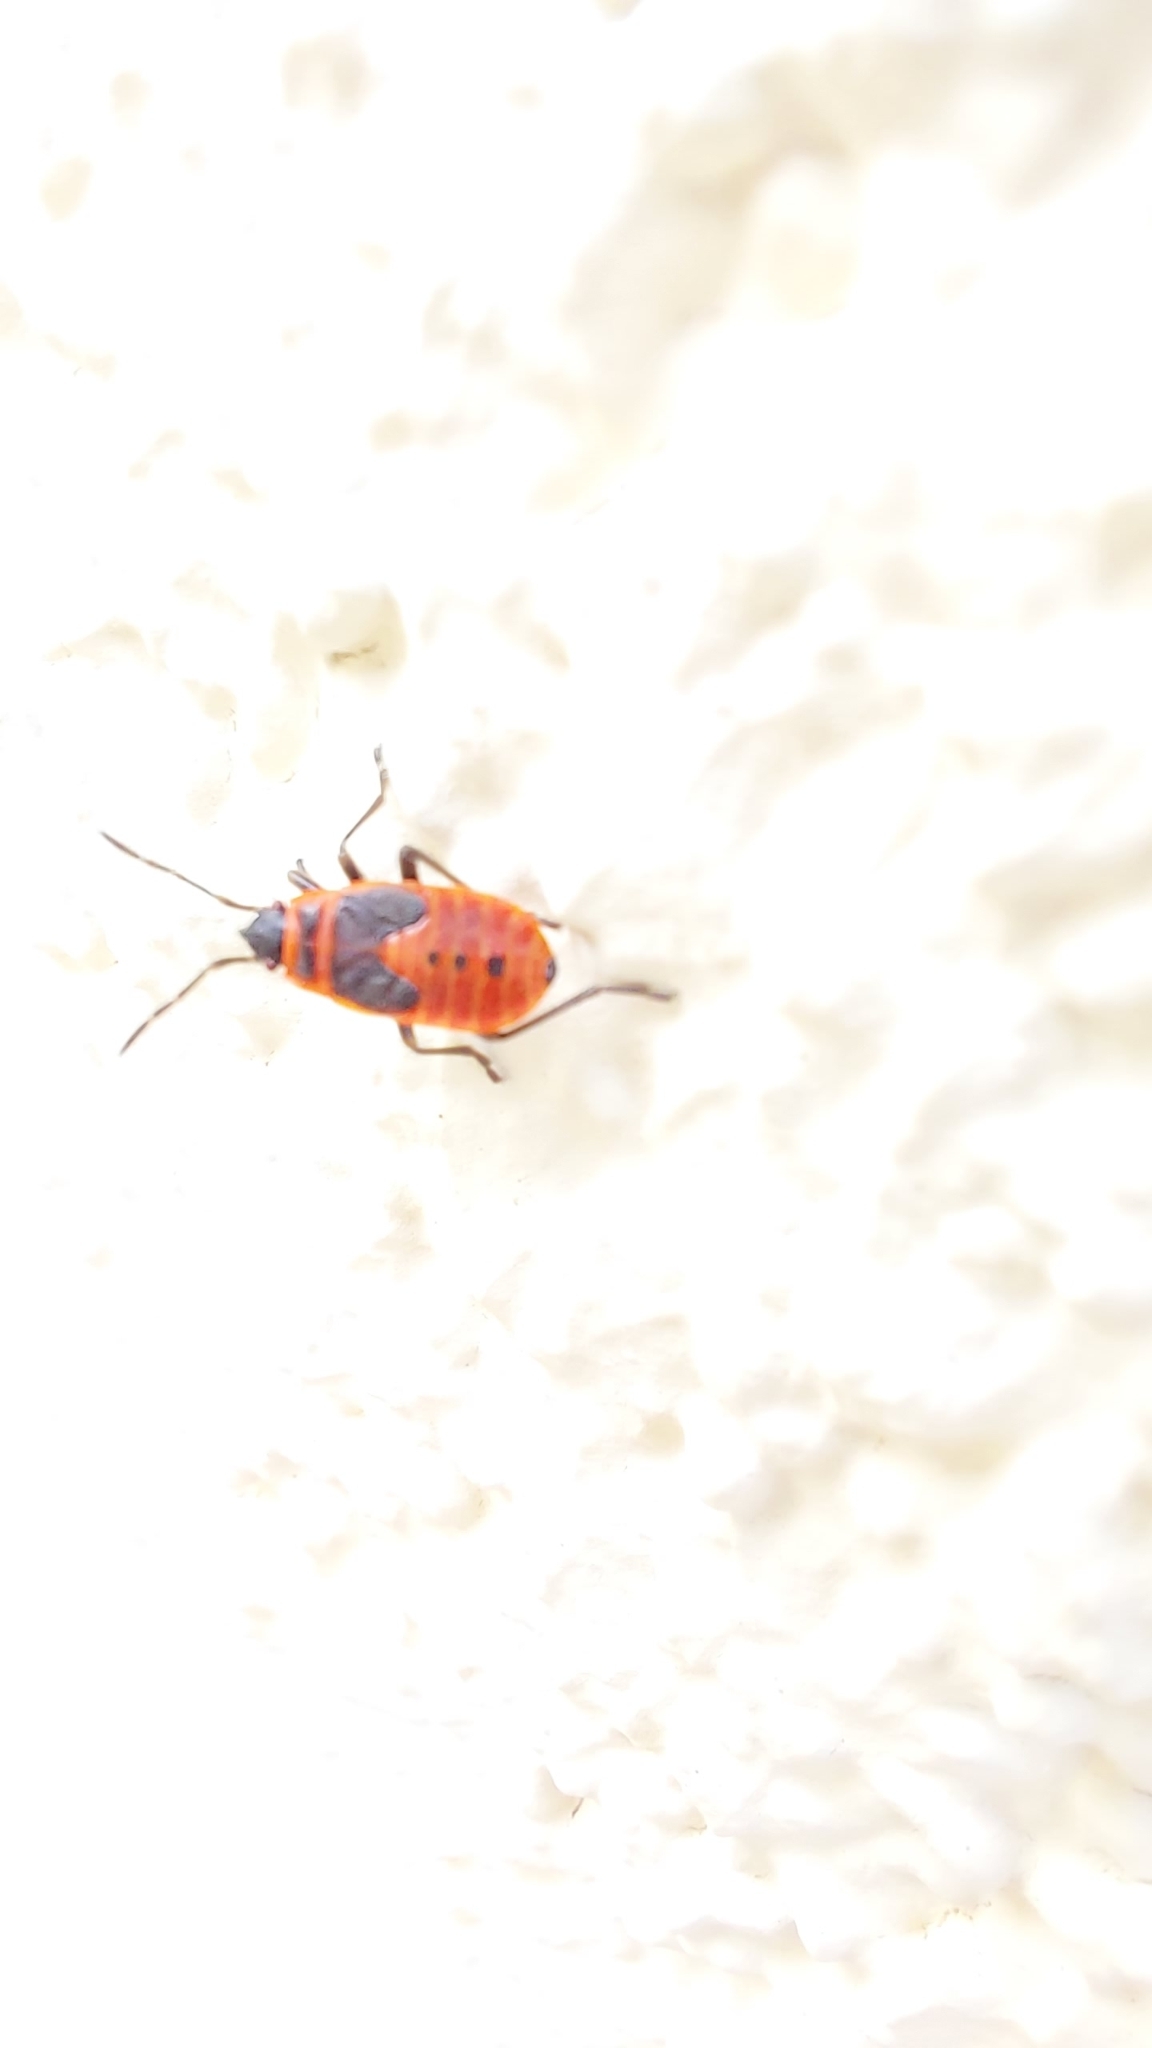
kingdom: Animalia
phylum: Arthropoda
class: Insecta
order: Hemiptera
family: Pyrrhocoridae
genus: Pyrrhocoris
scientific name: Pyrrhocoris apterus
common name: Firebug
